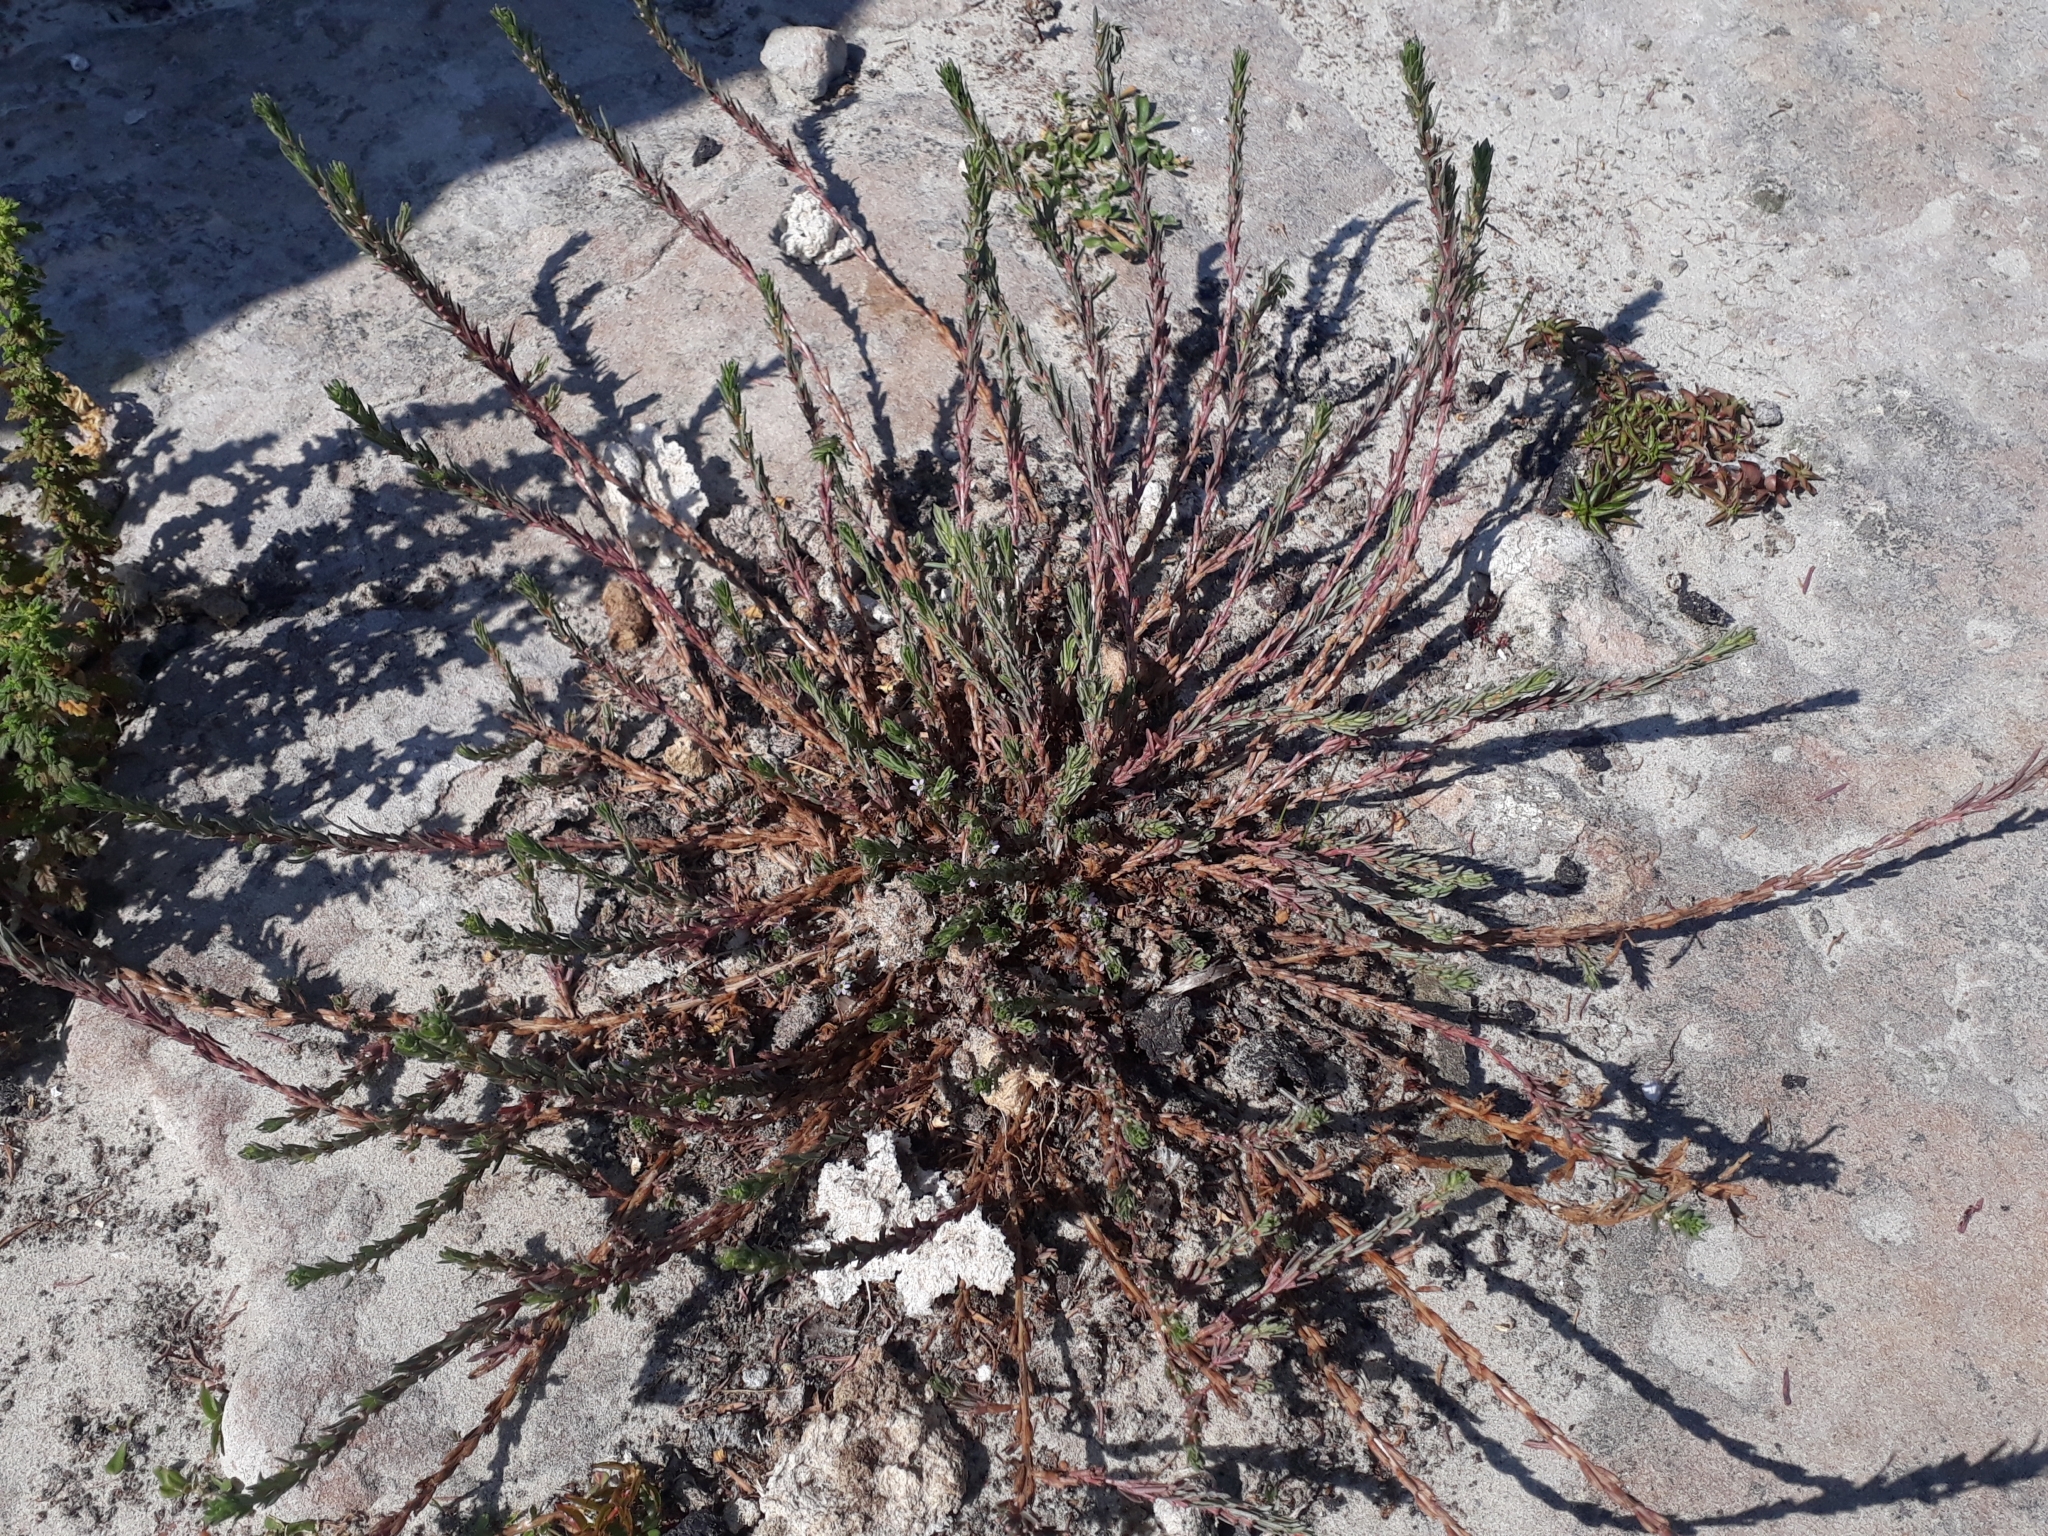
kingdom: Plantae
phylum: Tracheophyta
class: Magnoliopsida
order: Myrtales
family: Lythraceae
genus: Lythrum
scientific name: Lythrum hyssopifolia
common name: Grass-poly
